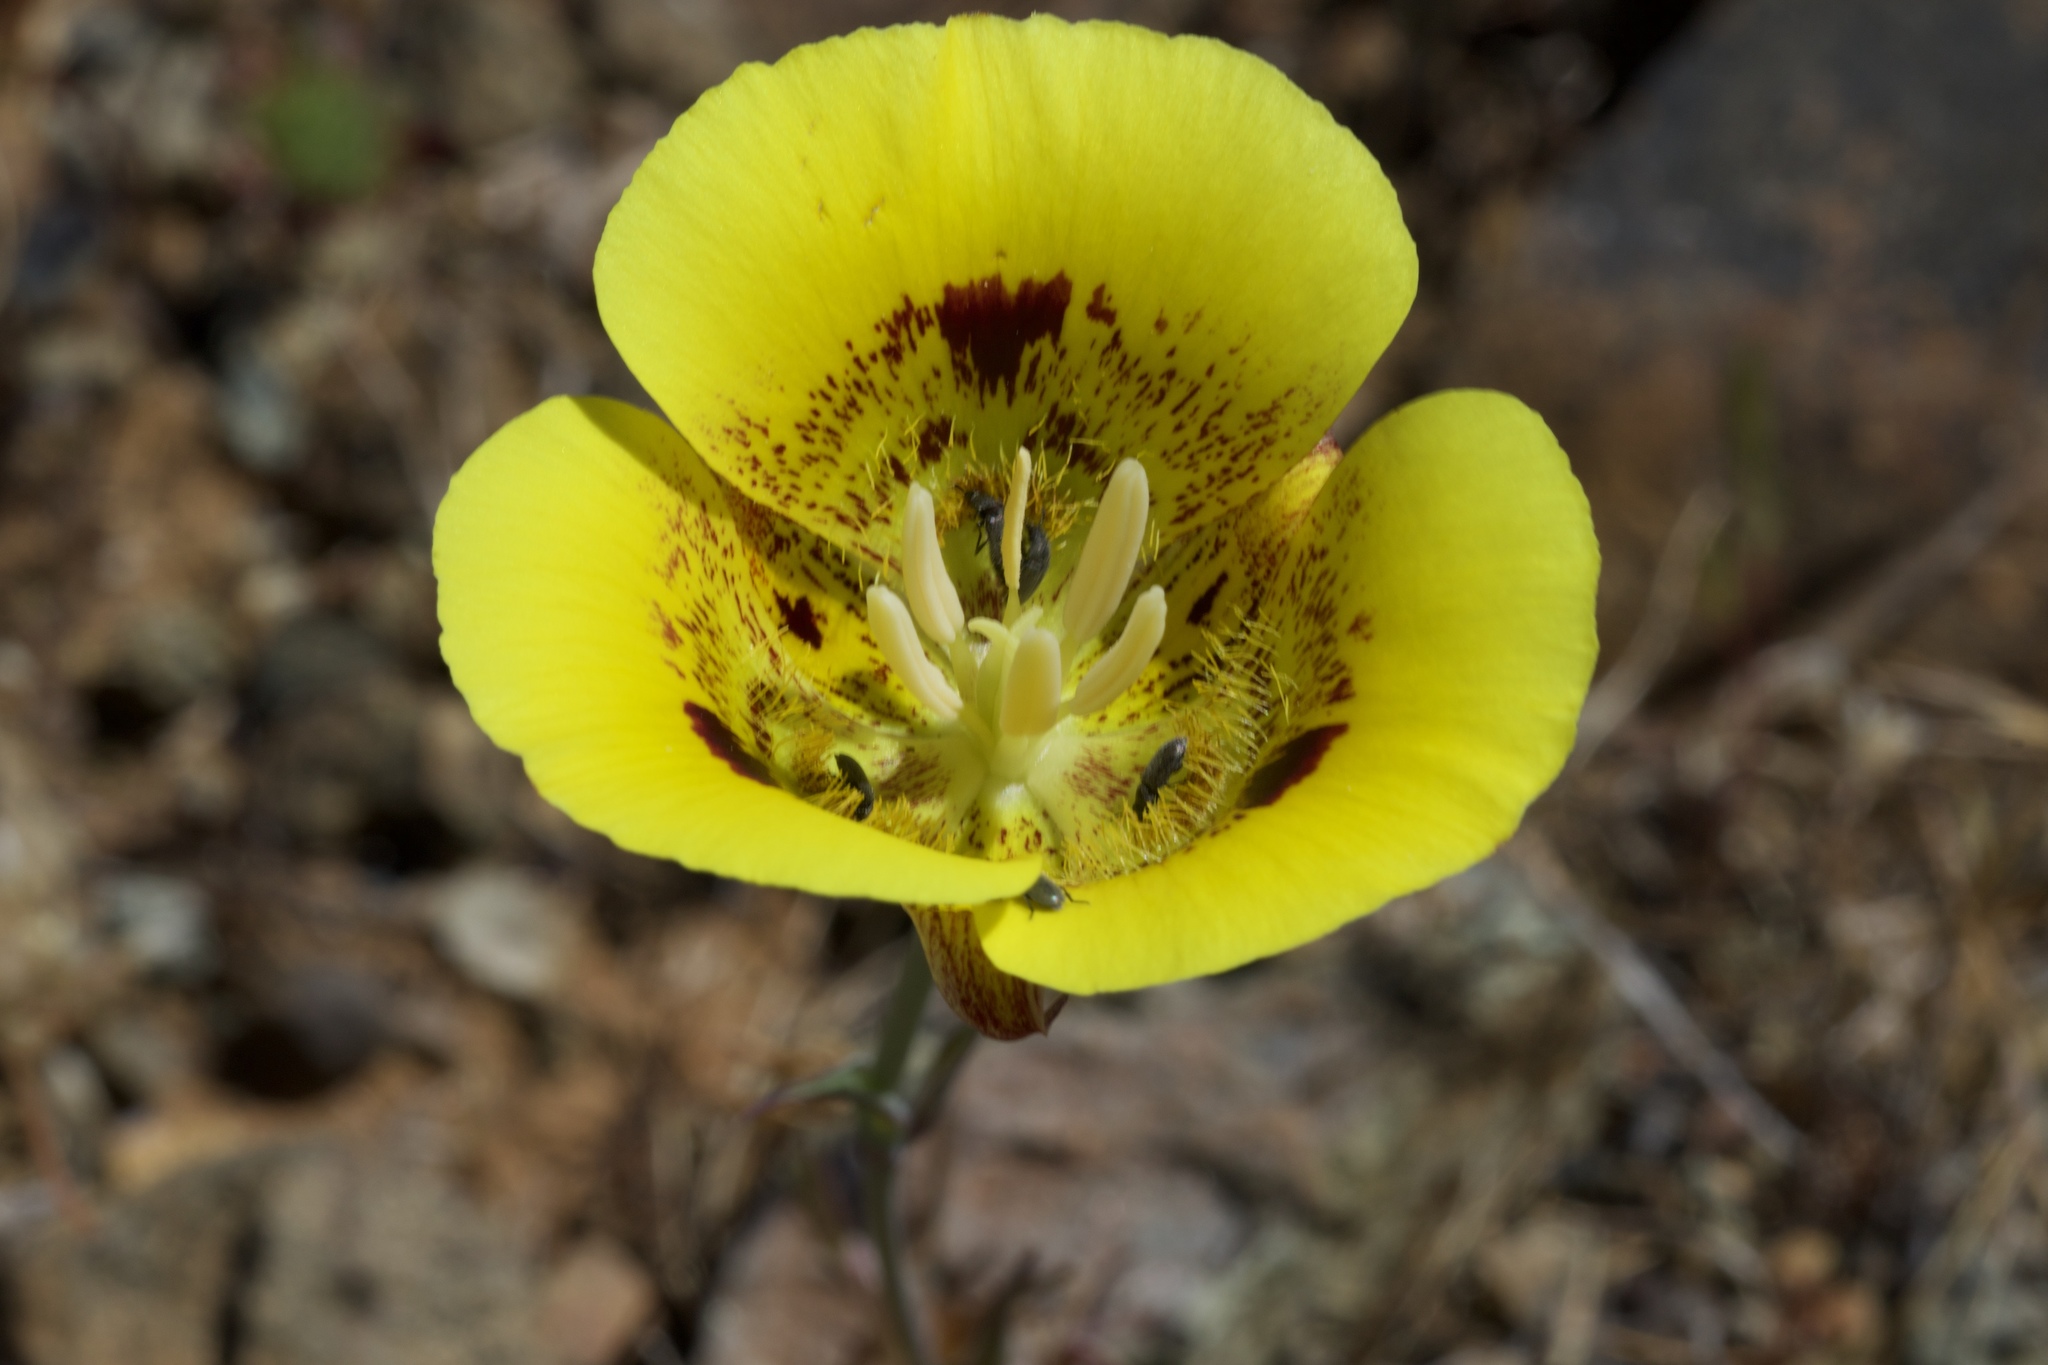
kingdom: Plantae
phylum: Tracheophyta
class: Liliopsida
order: Liliales
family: Liliaceae
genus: Calochortus
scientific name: Calochortus luteus
